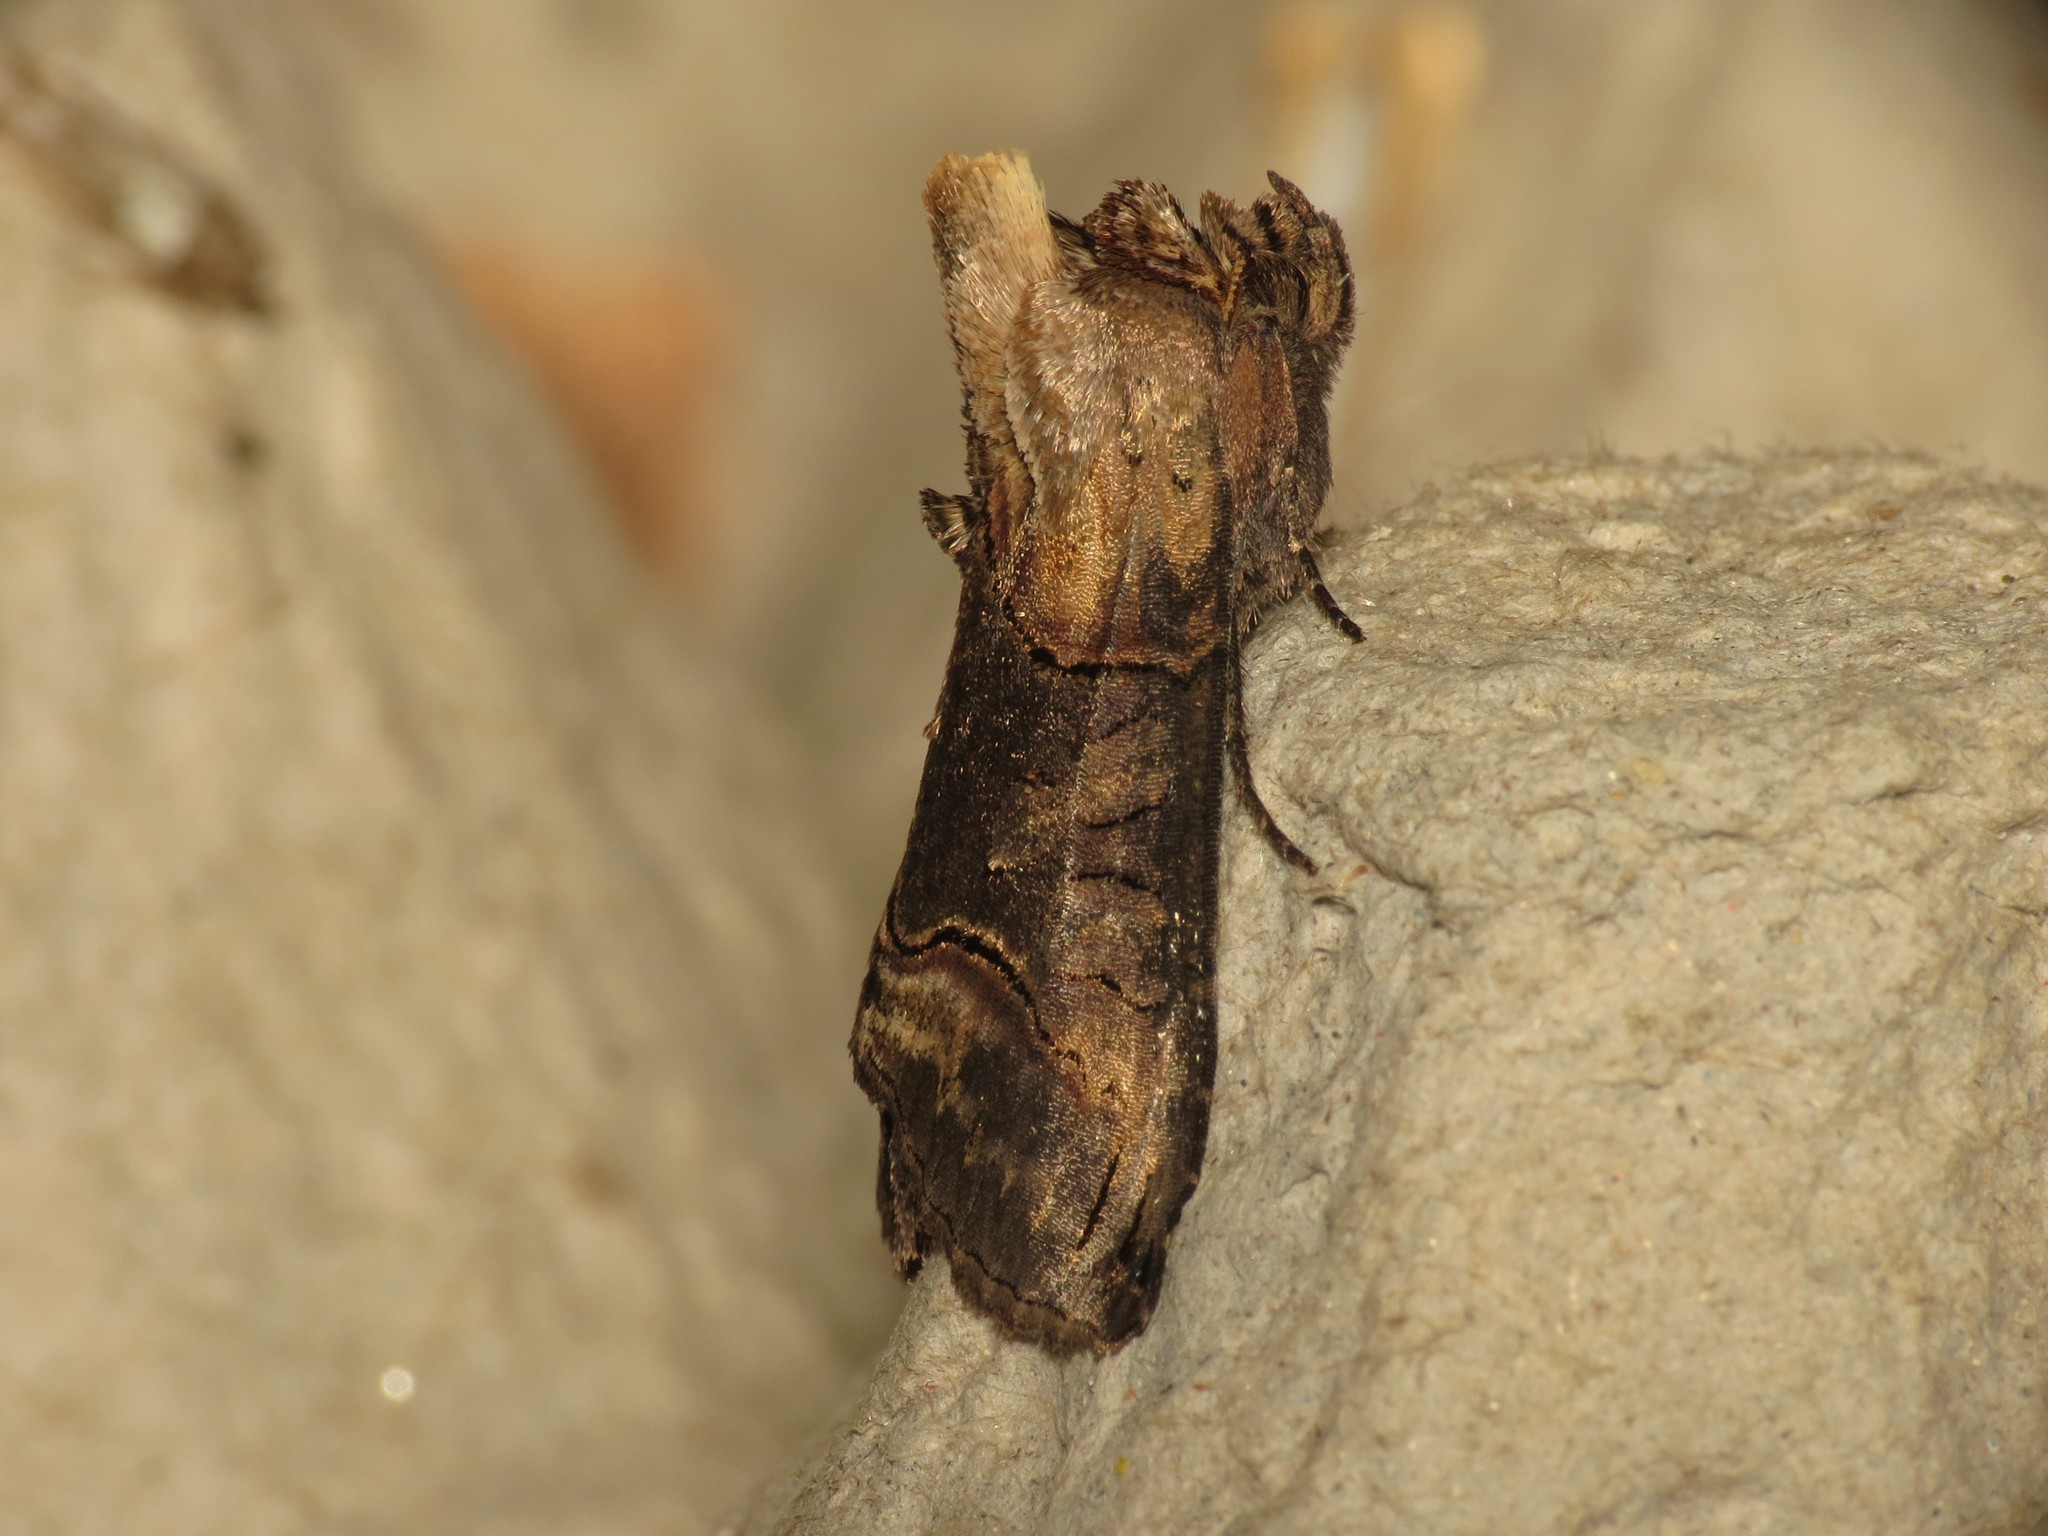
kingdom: Animalia
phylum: Arthropoda
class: Insecta
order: Lepidoptera
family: Noctuidae
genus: Abrostola
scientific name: Abrostola triplasia
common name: Dark spectacle
